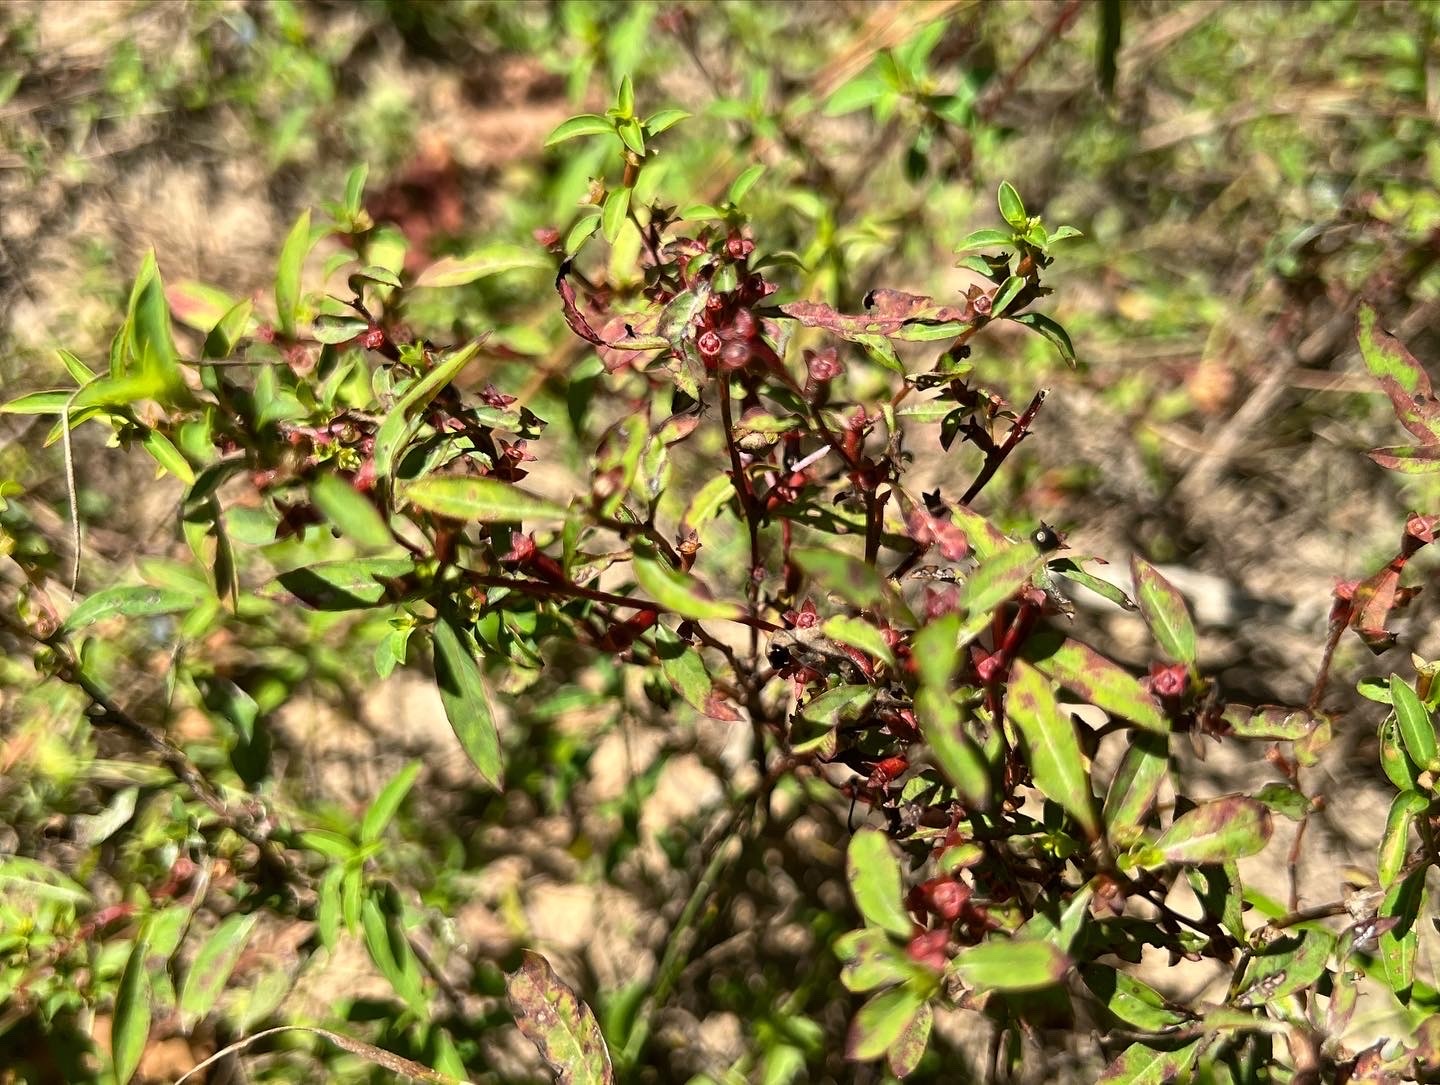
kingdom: Plantae
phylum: Tracheophyta
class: Magnoliopsida
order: Myrtales
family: Onagraceae
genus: Ludwigia
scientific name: Ludwigia glandulosa
